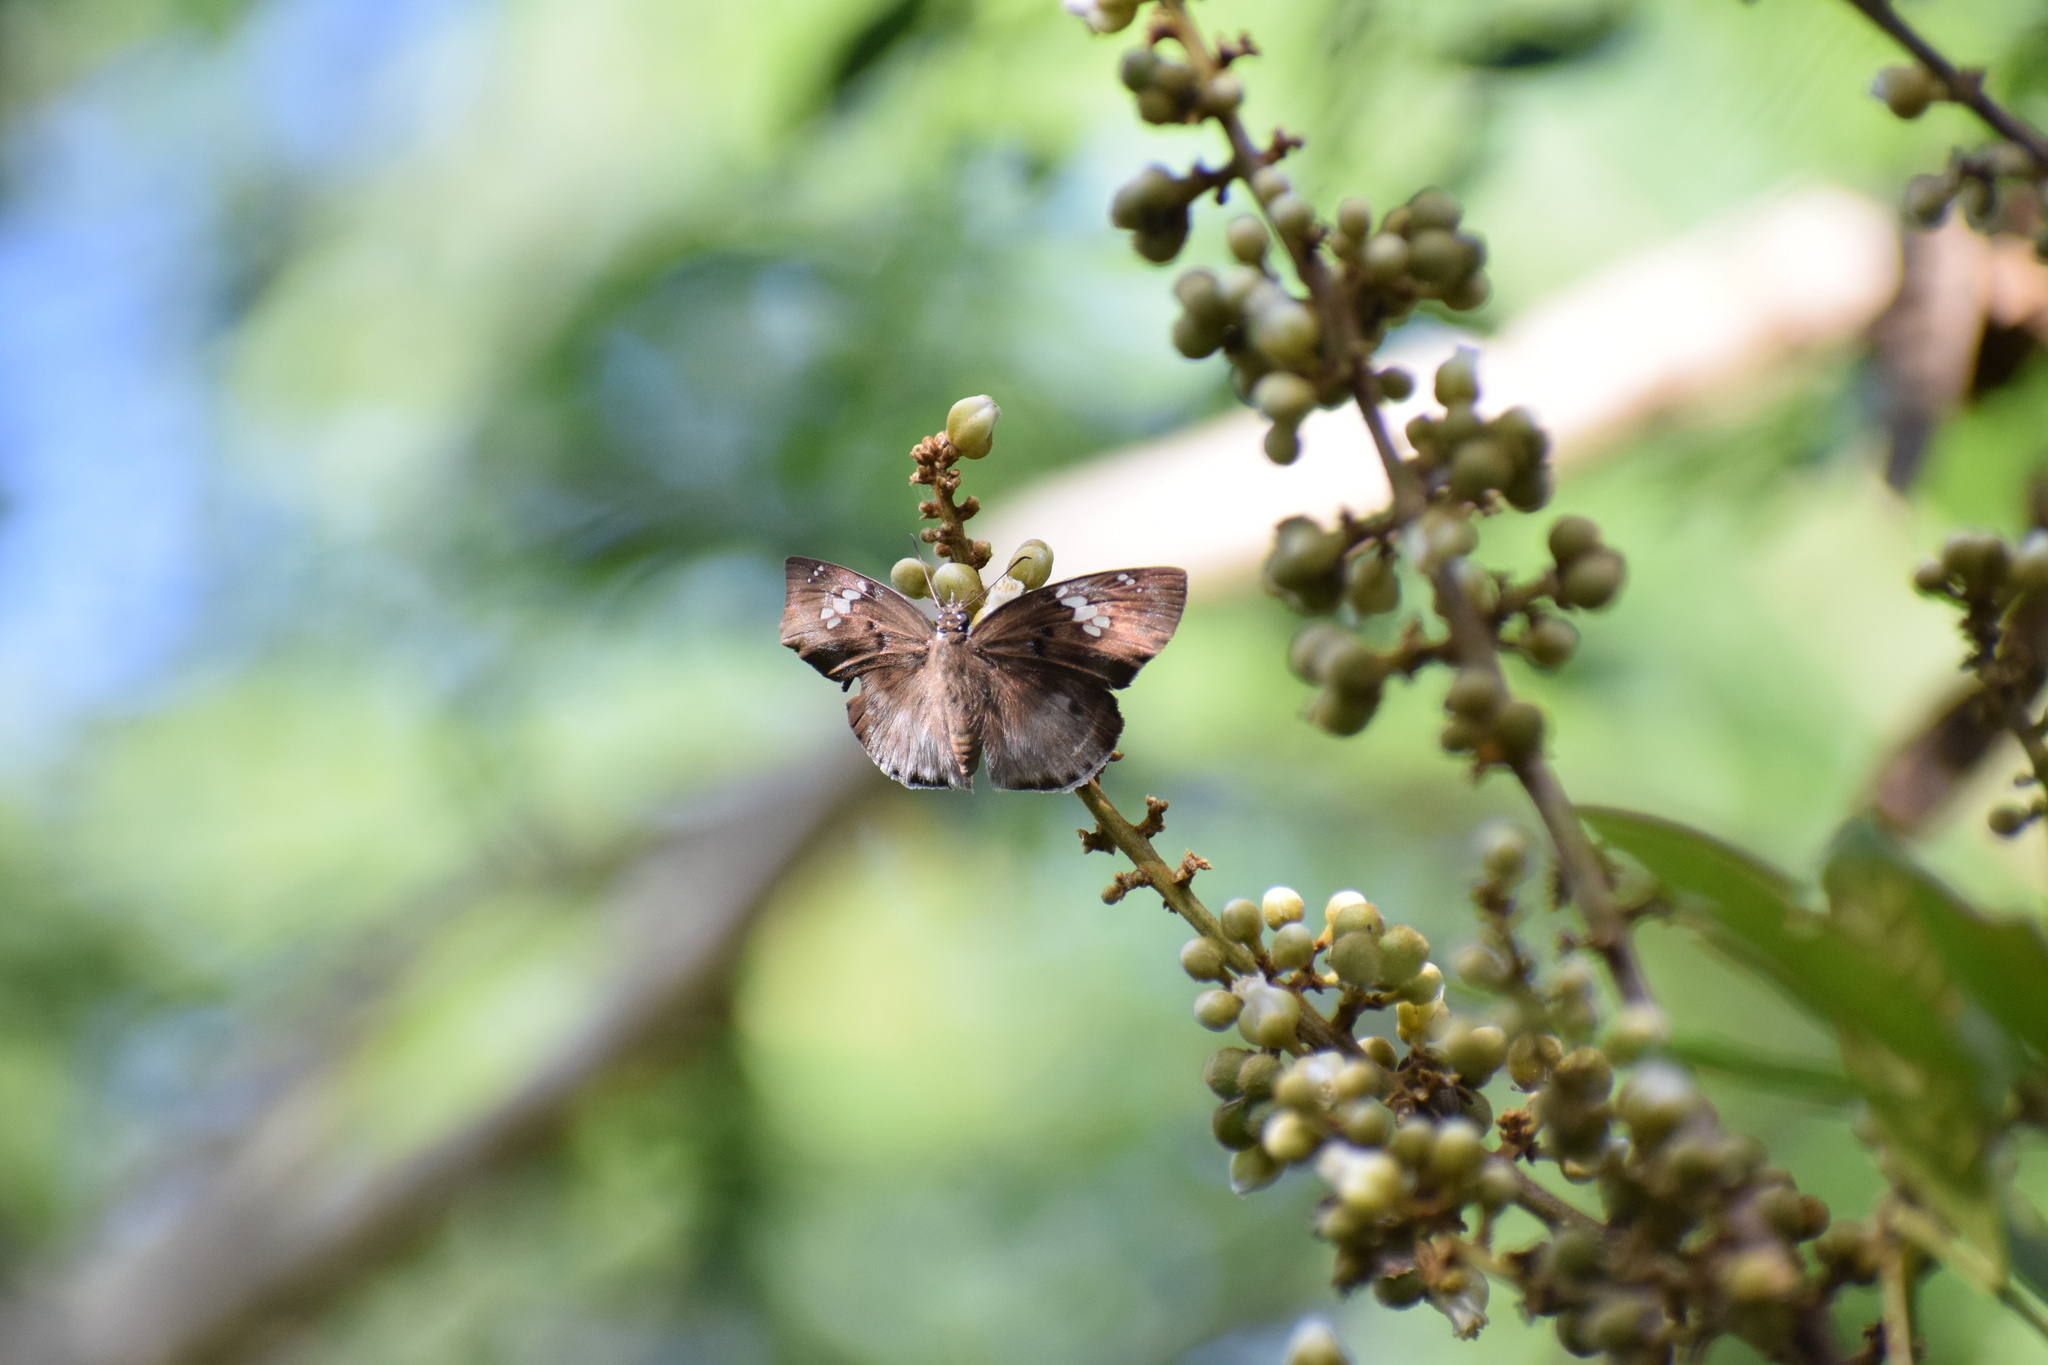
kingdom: Animalia
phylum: Arthropoda
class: Insecta
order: Lepidoptera
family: Hesperiidae
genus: Tagiades
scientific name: Tagiades flesus
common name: Clouded flat
